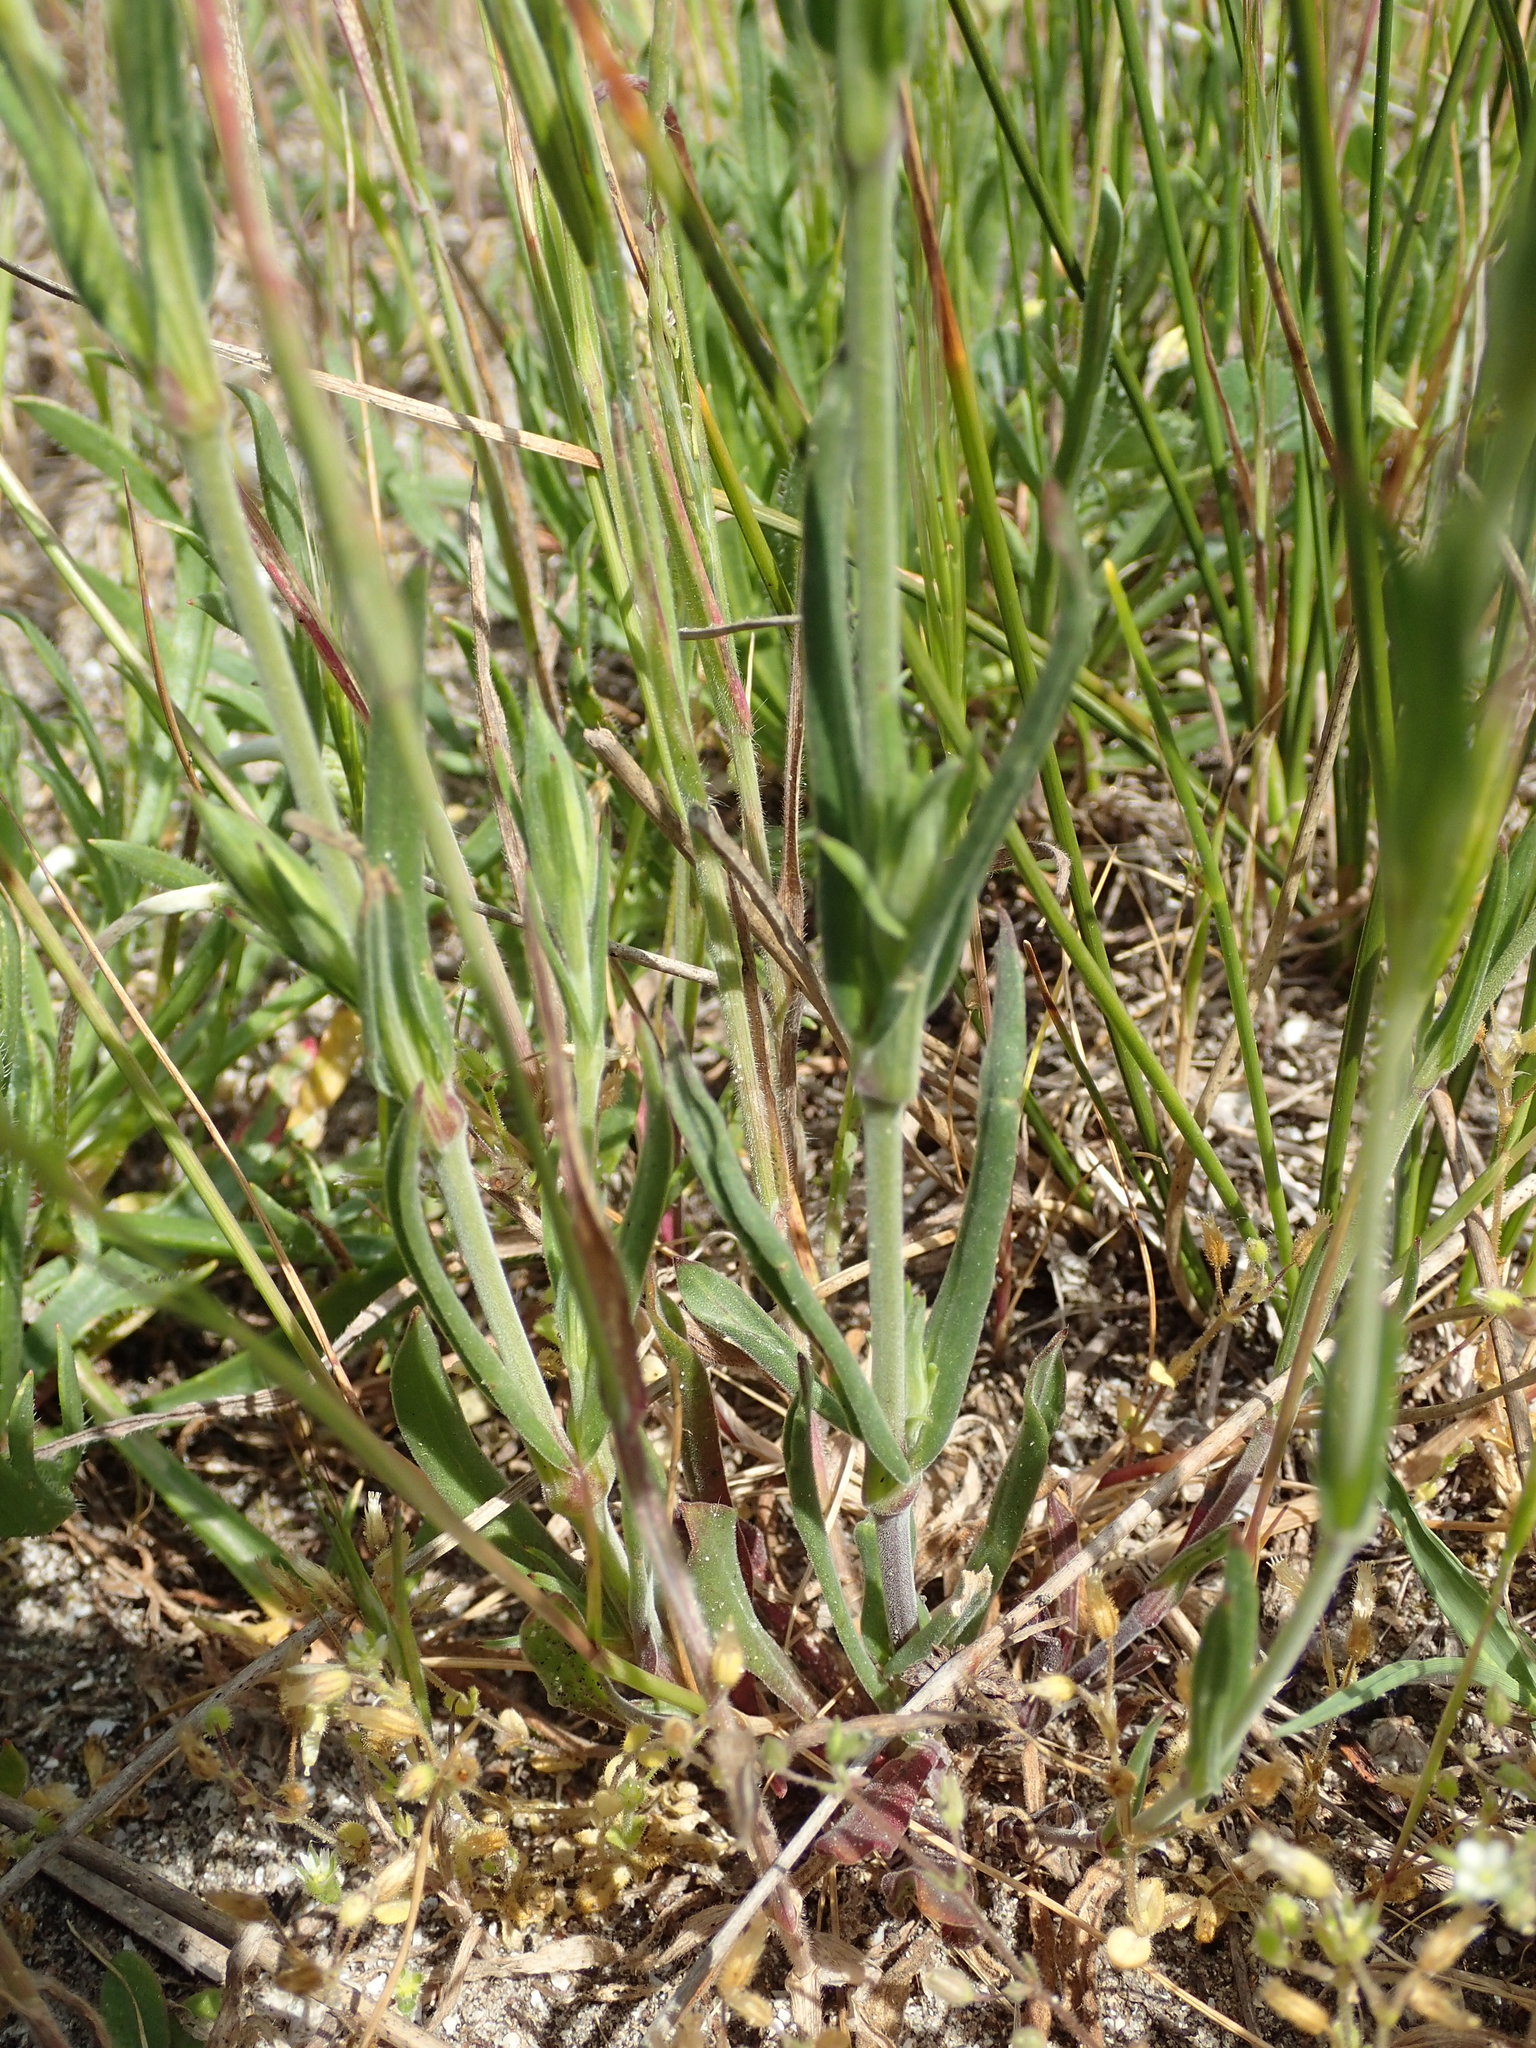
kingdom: Plantae
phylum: Tracheophyta
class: Magnoliopsida
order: Caryophyllales
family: Caryophyllaceae
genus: Silene
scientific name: Silene conica
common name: Sand catchfly
